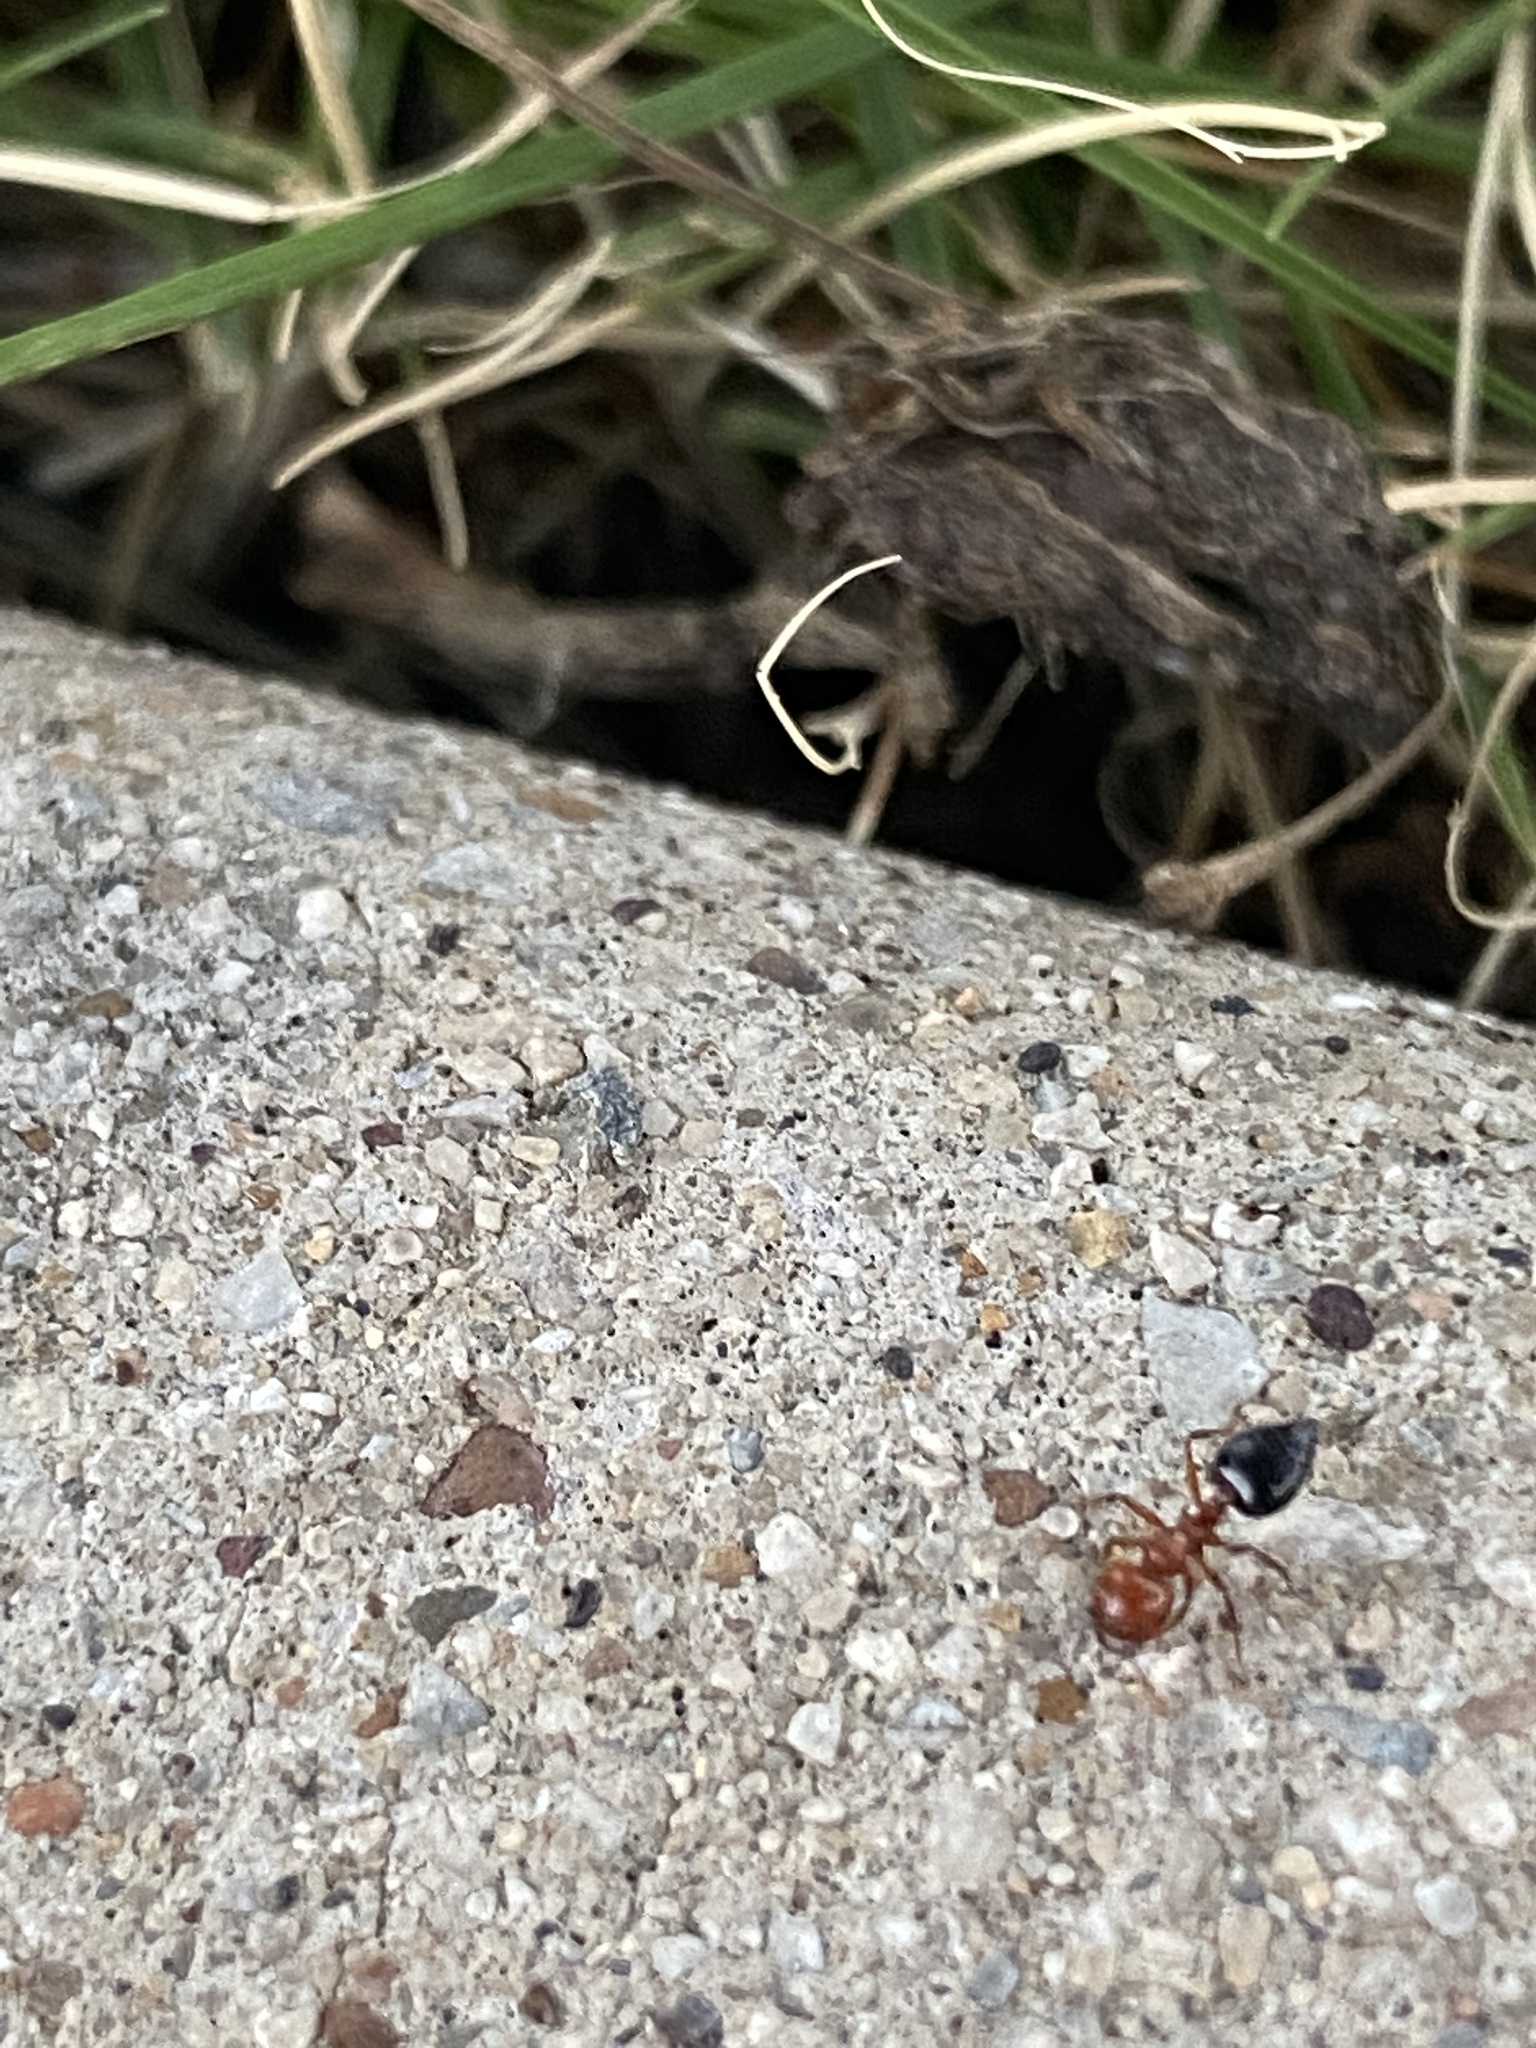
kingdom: Animalia
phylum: Arthropoda
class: Insecta
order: Hymenoptera
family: Formicidae
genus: Crematogaster
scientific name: Crematogaster laeviuscula
